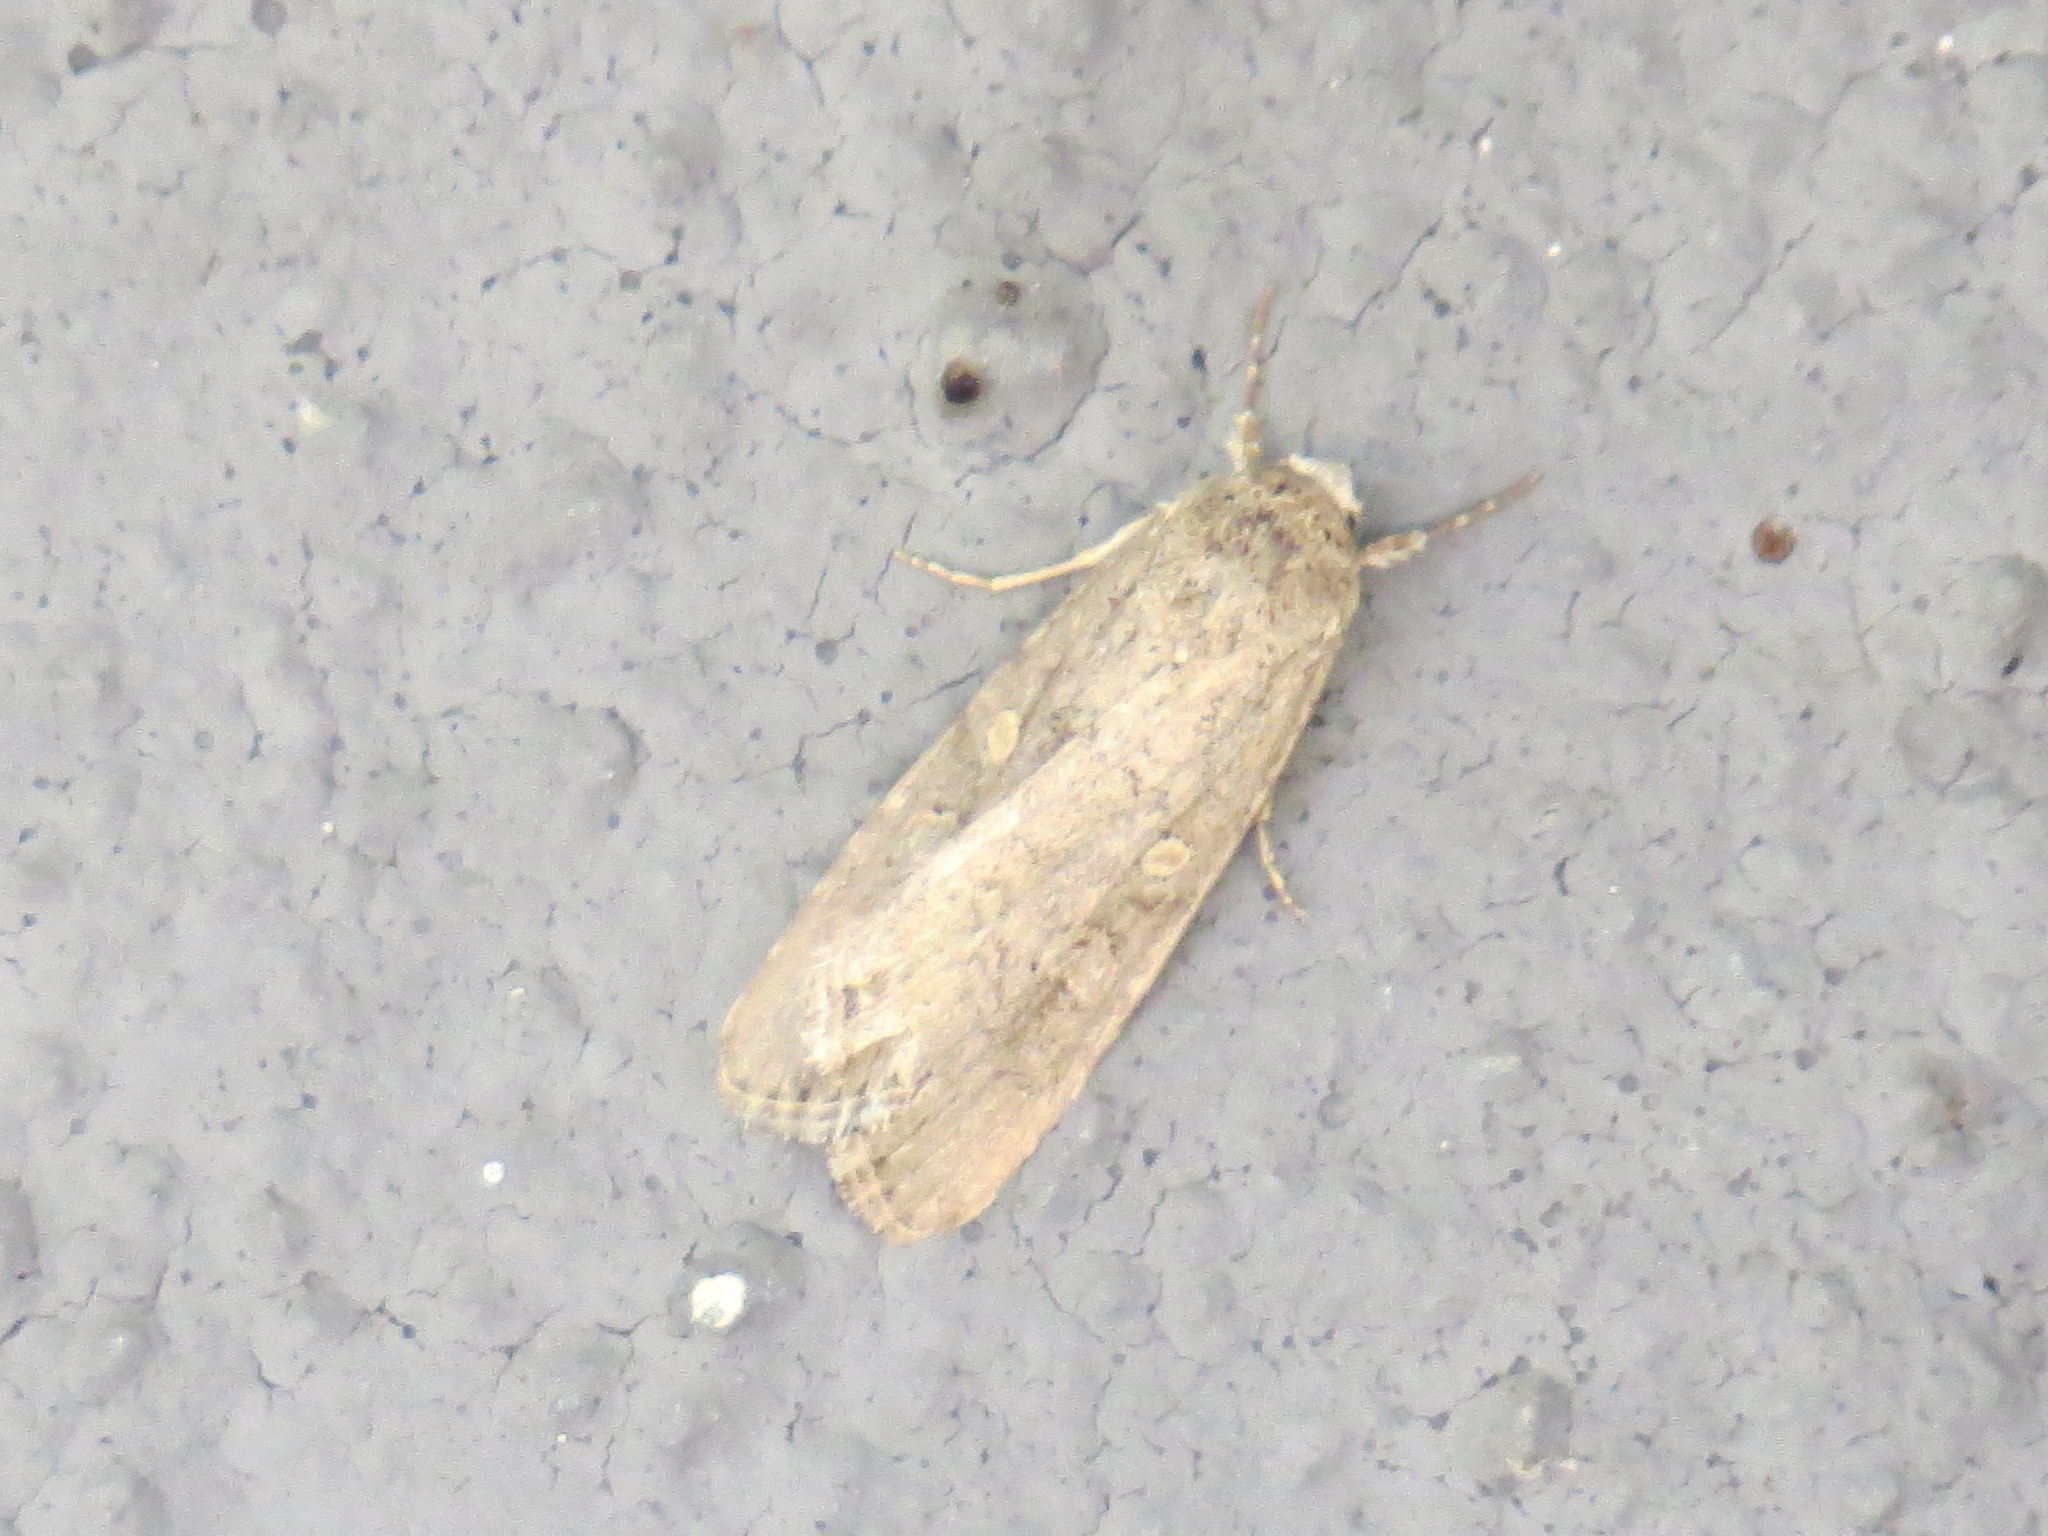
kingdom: Animalia
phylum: Arthropoda
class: Insecta
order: Lepidoptera
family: Noctuidae
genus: Spodoptera
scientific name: Spodoptera exigua
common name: Beet armyworm
